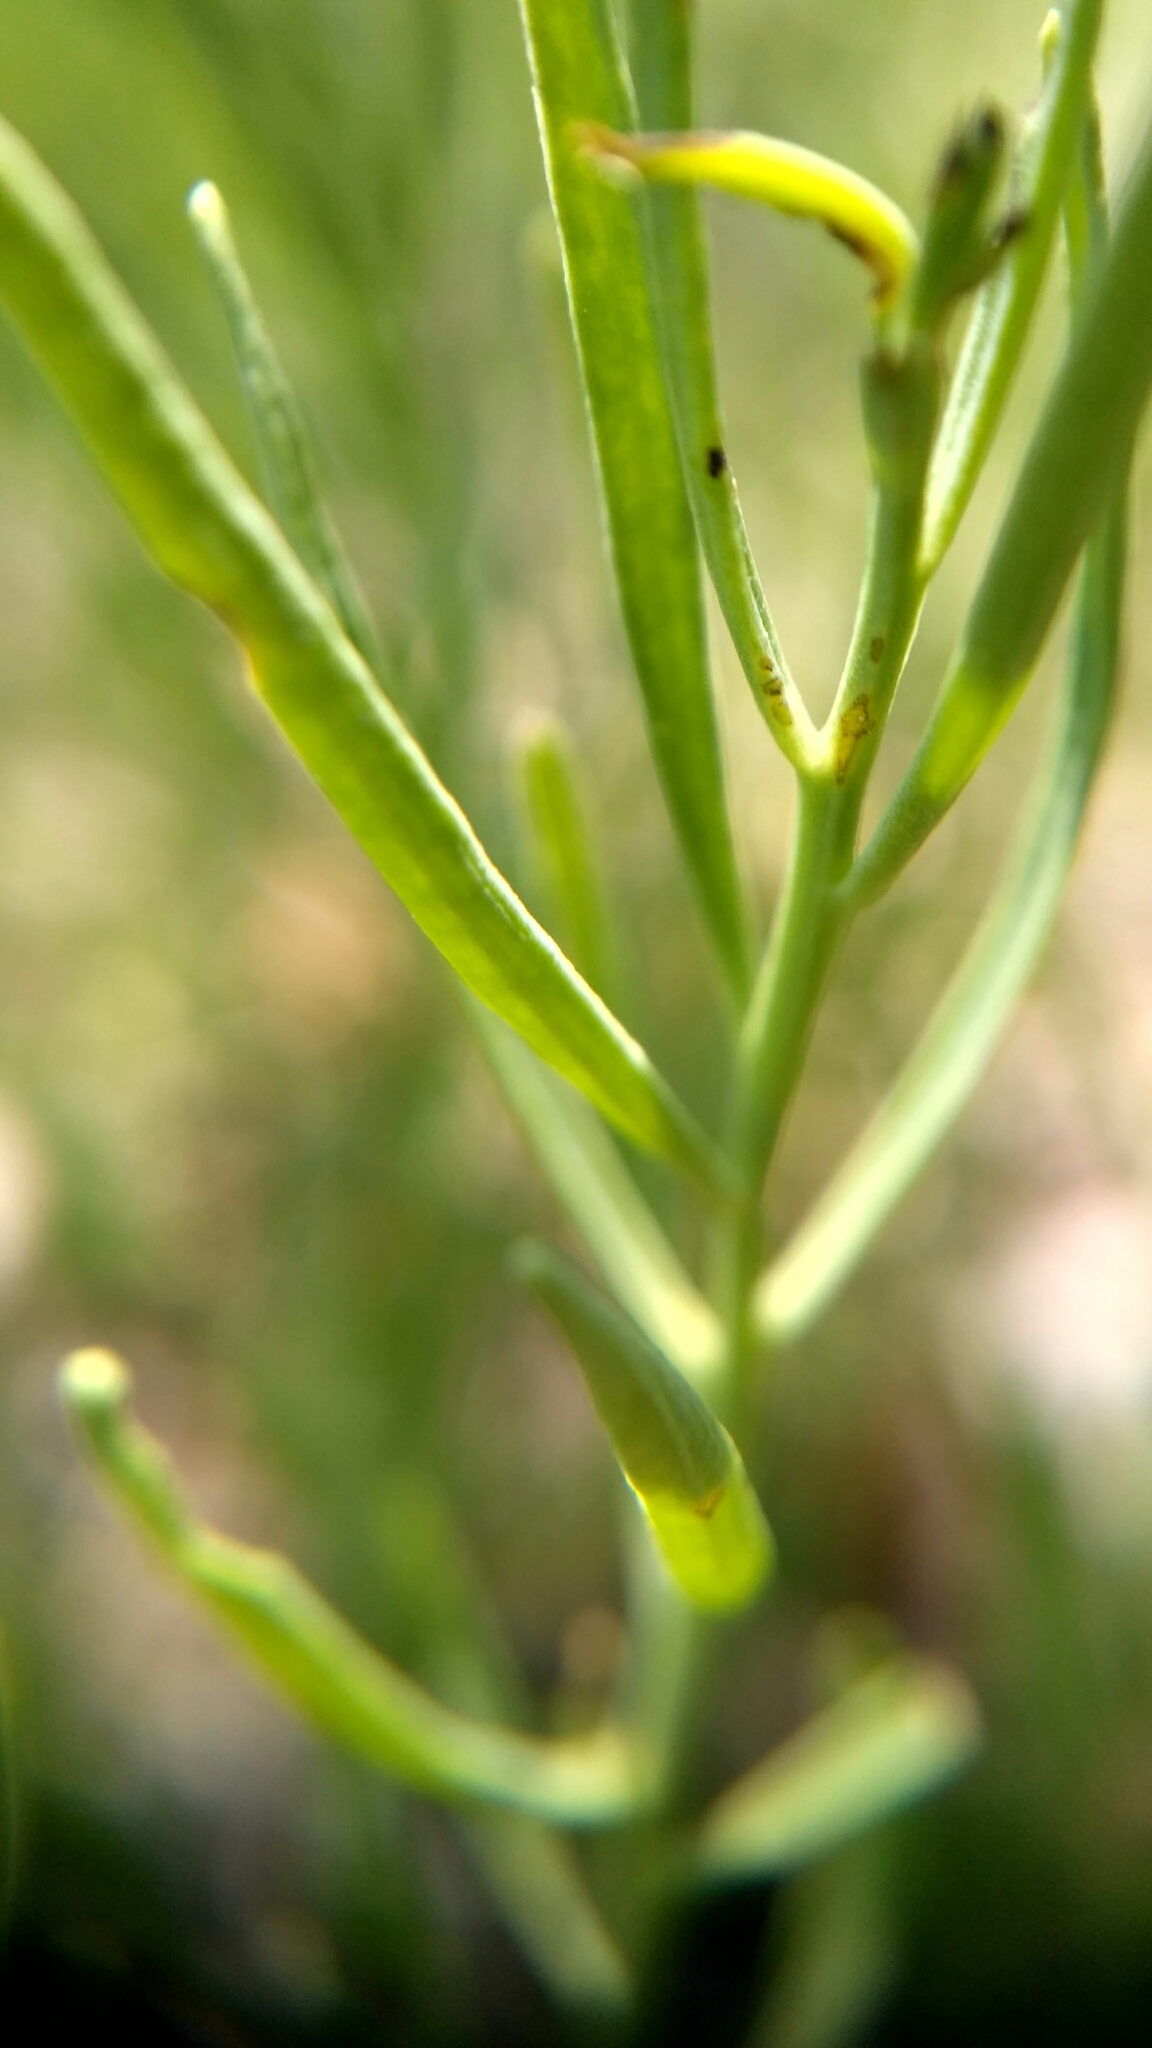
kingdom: Plantae
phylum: Tracheophyta
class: Magnoliopsida
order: Santalales
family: Thesiaceae
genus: Thesium
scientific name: Thesium ebracteatum
